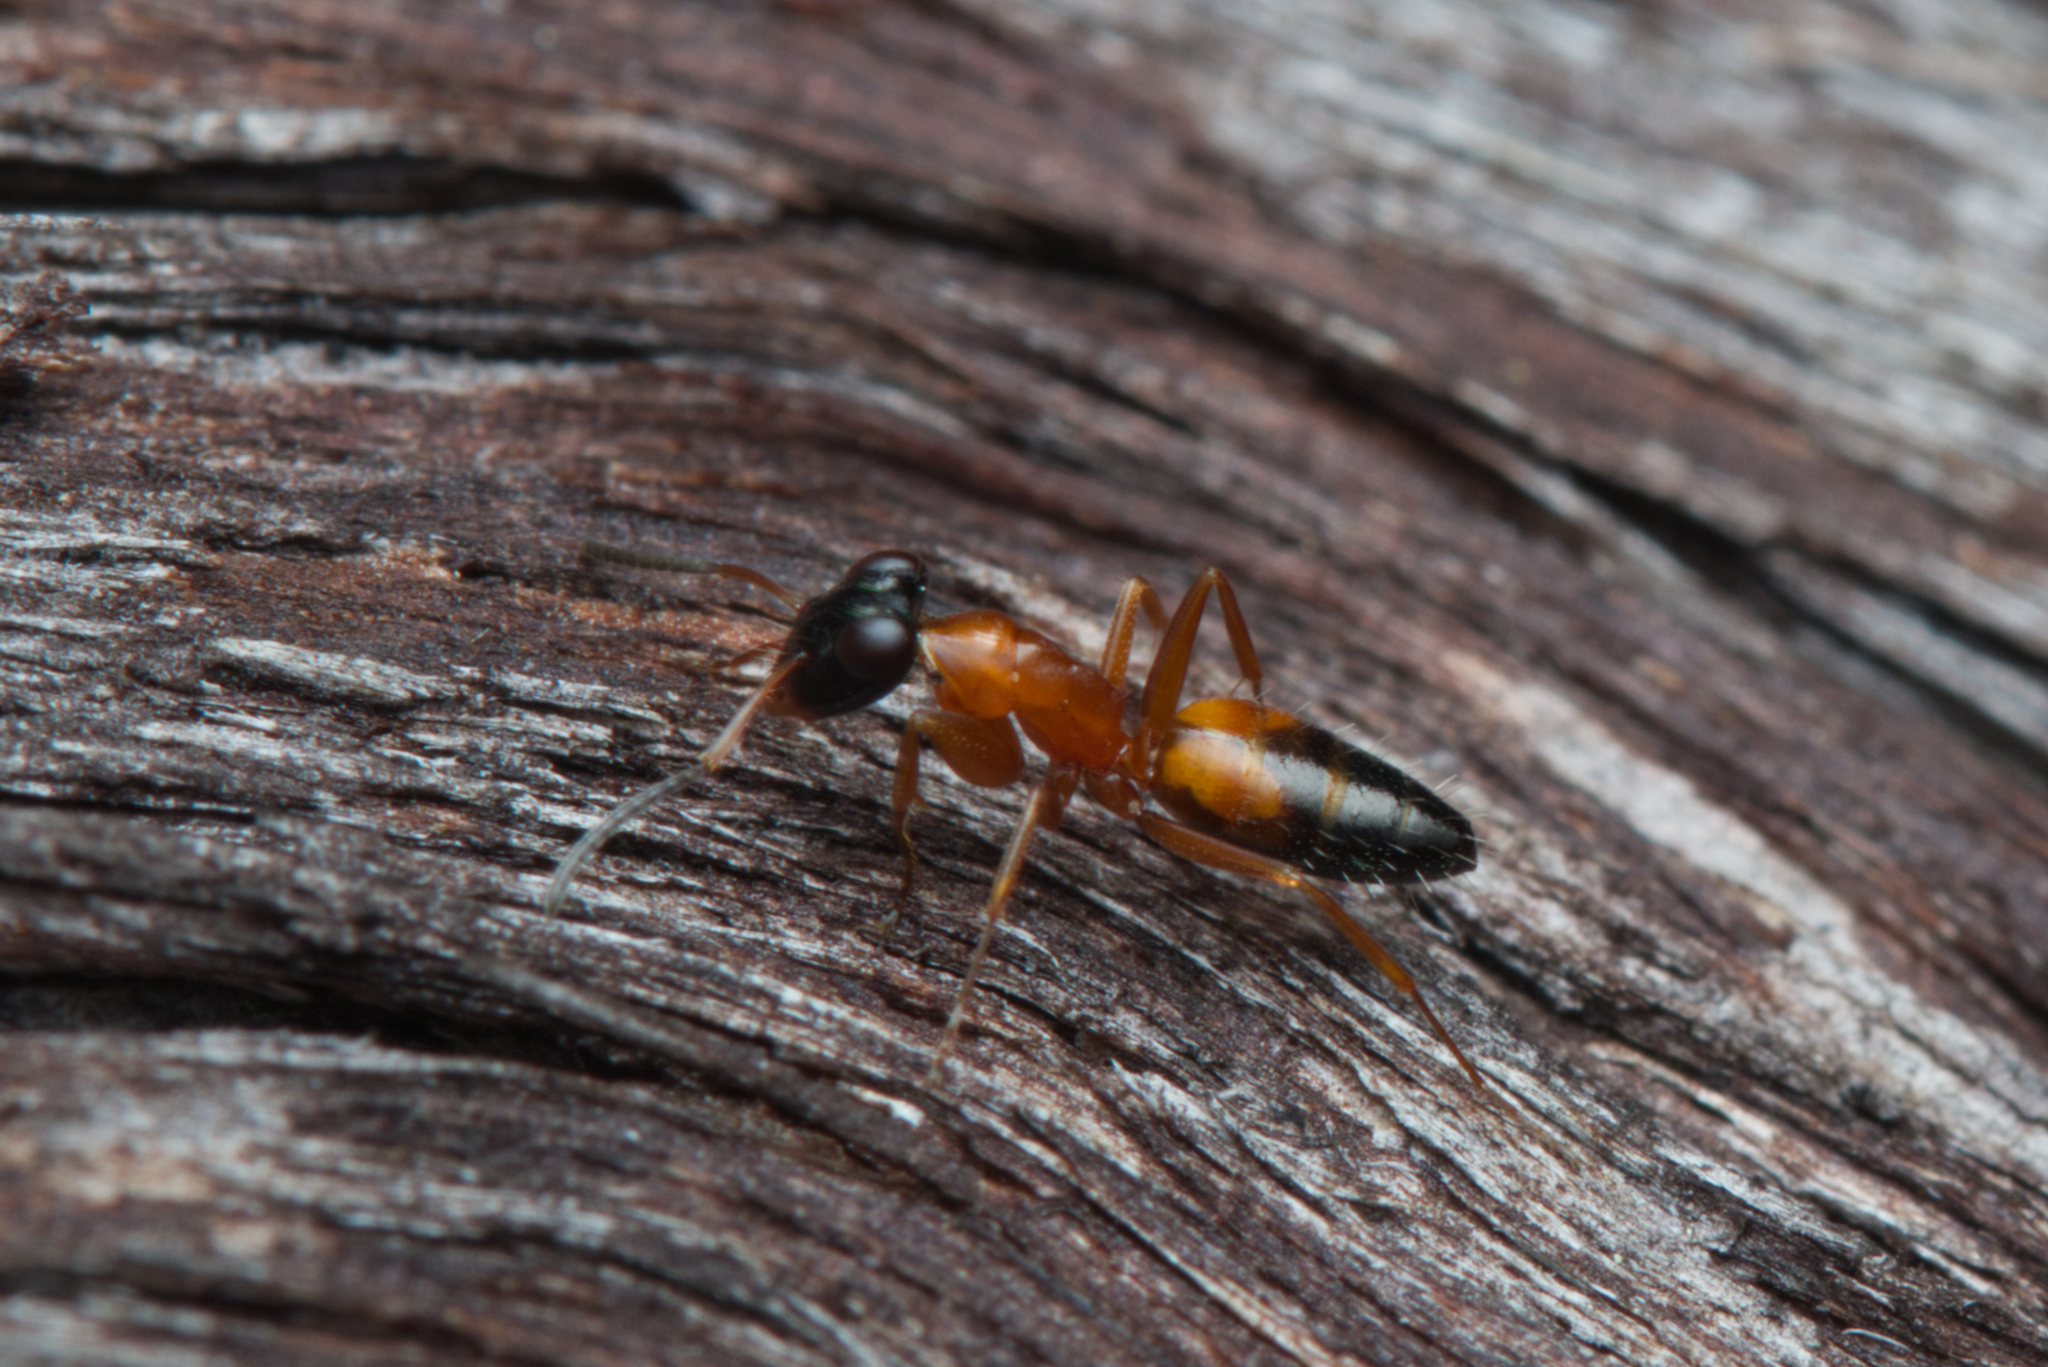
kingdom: Animalia
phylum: Arthropoda
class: Insecta
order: Hymenoptera
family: Formicidae
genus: Opisthopsis
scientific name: Opisthopsis rufithorax
